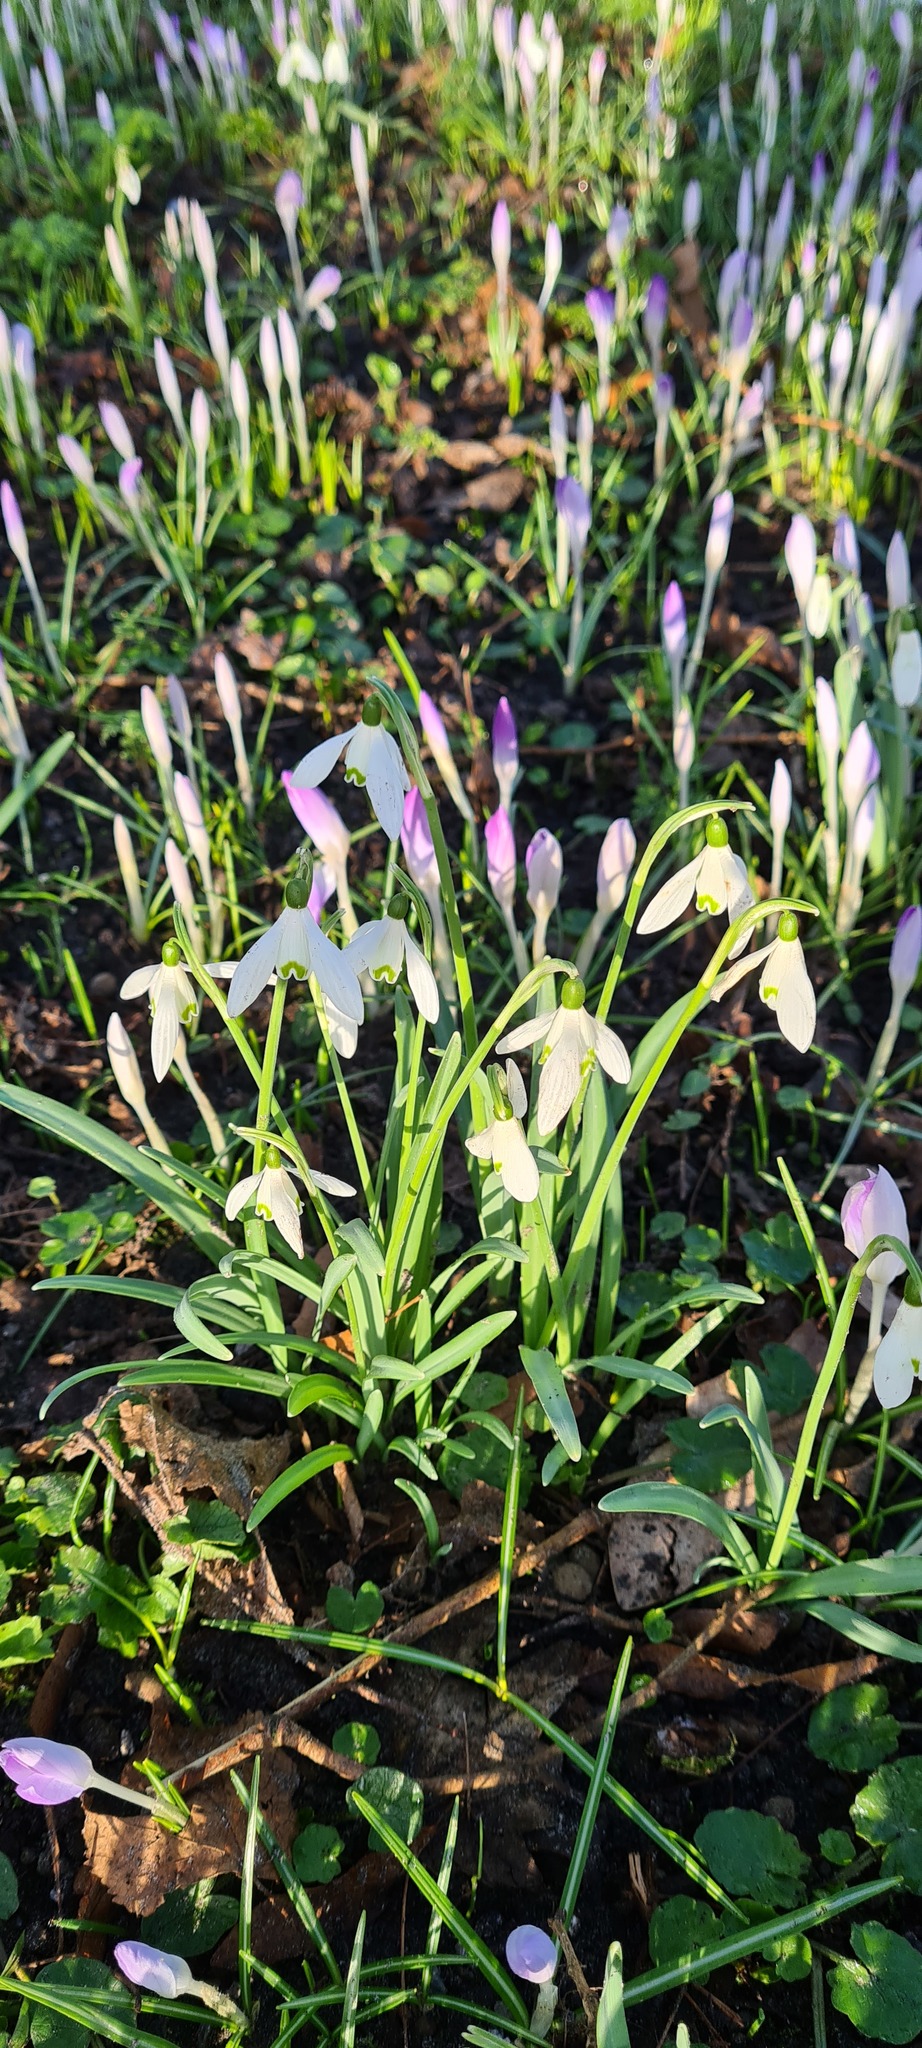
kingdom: Plantae
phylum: Tracheophyta
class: Liliopsida
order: Asparagales
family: Amaryllidaceae
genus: Galanthus
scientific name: Galanthus nivalis
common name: Snowdrop
